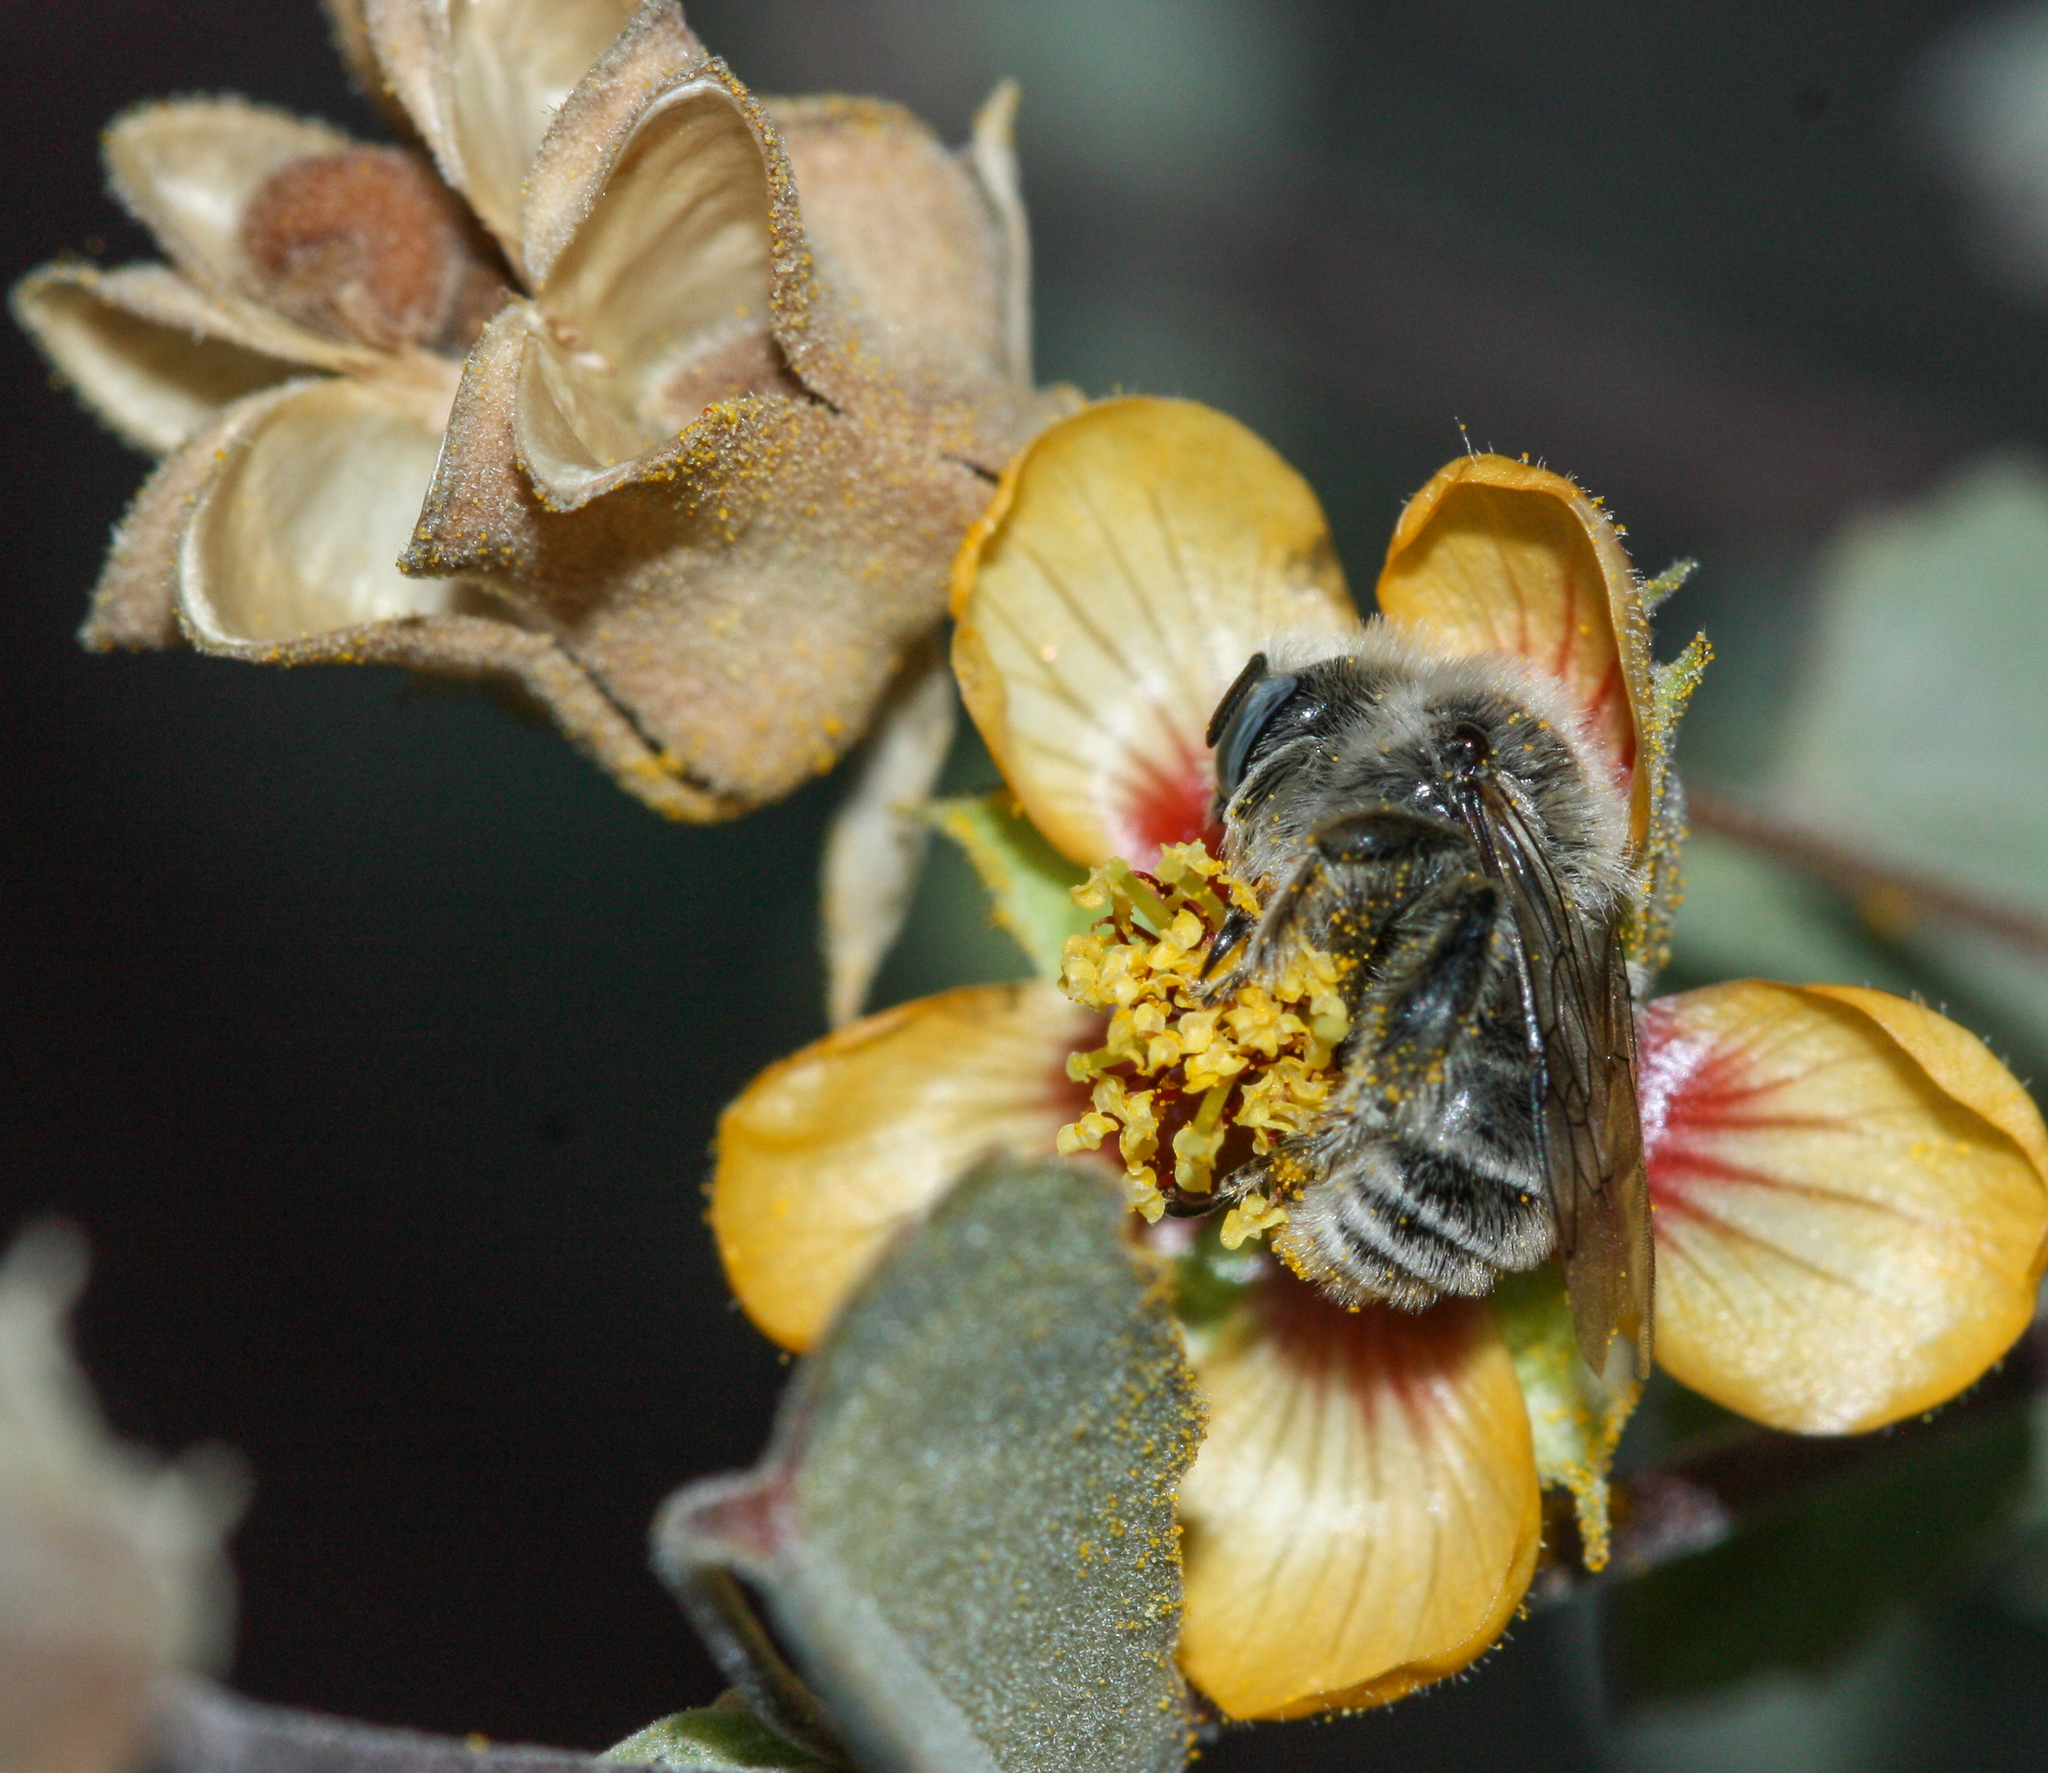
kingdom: Animalia
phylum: Arthropoda
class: Insecta
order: Hymenoptera
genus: Coquillettapis
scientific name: Coquillettapis
